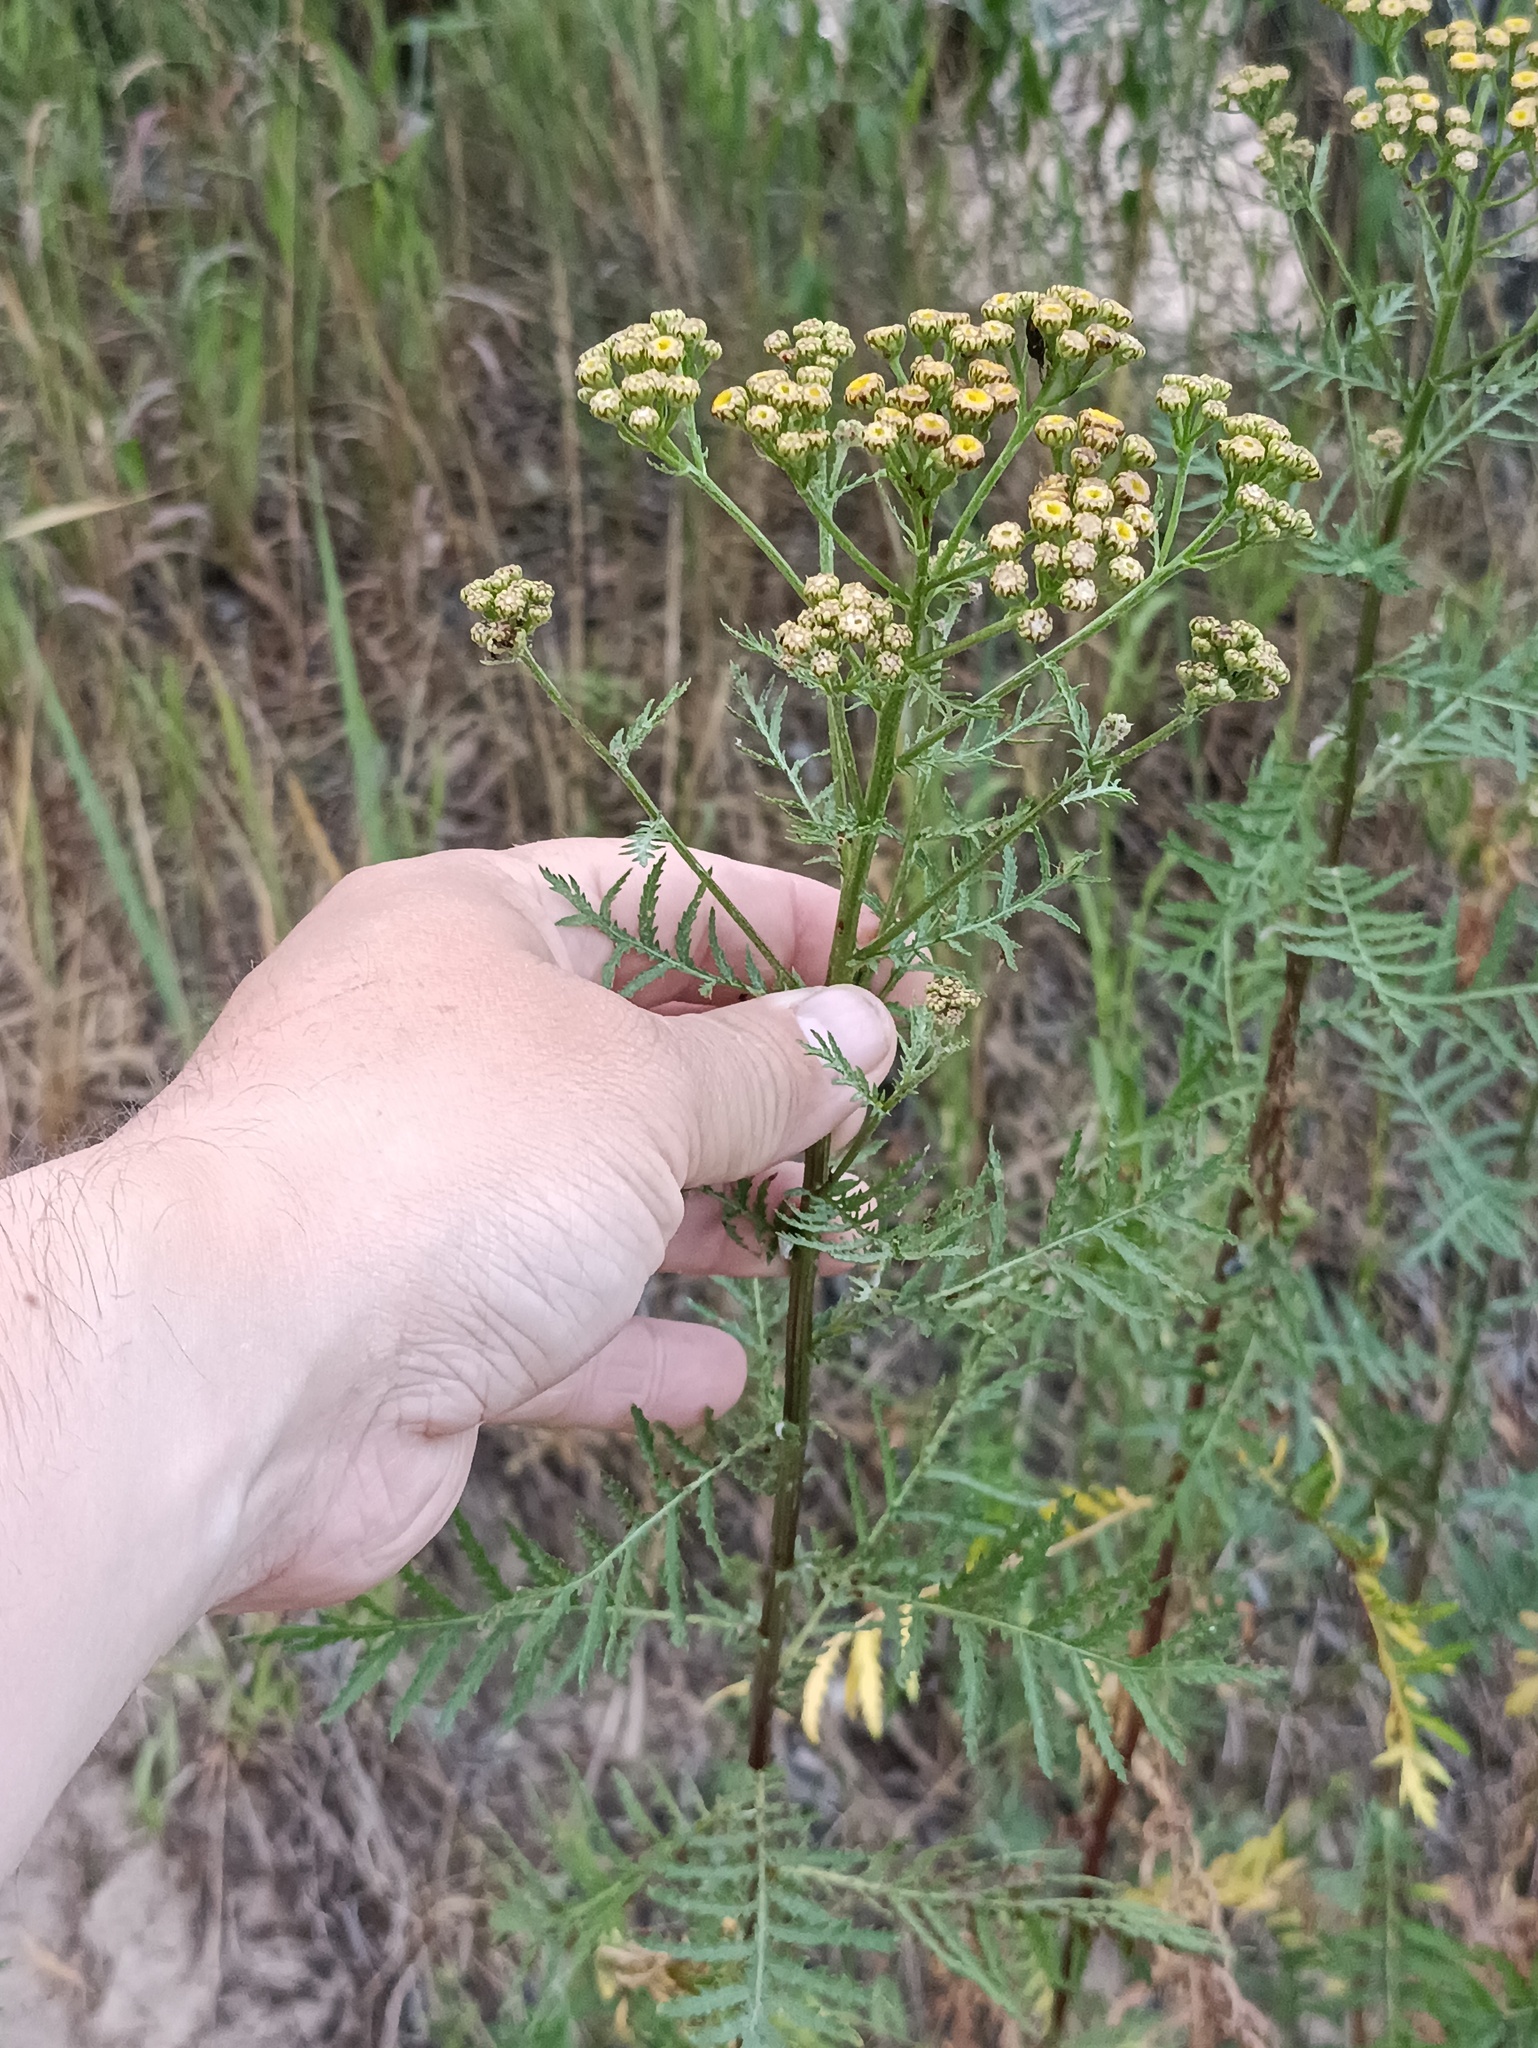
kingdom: Plantae
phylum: Tracheophyta
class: Magnoliopsida
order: Asterales
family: Asteraceae
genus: Tanacetum
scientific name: Tanacetum vulgare
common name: Common tansy
